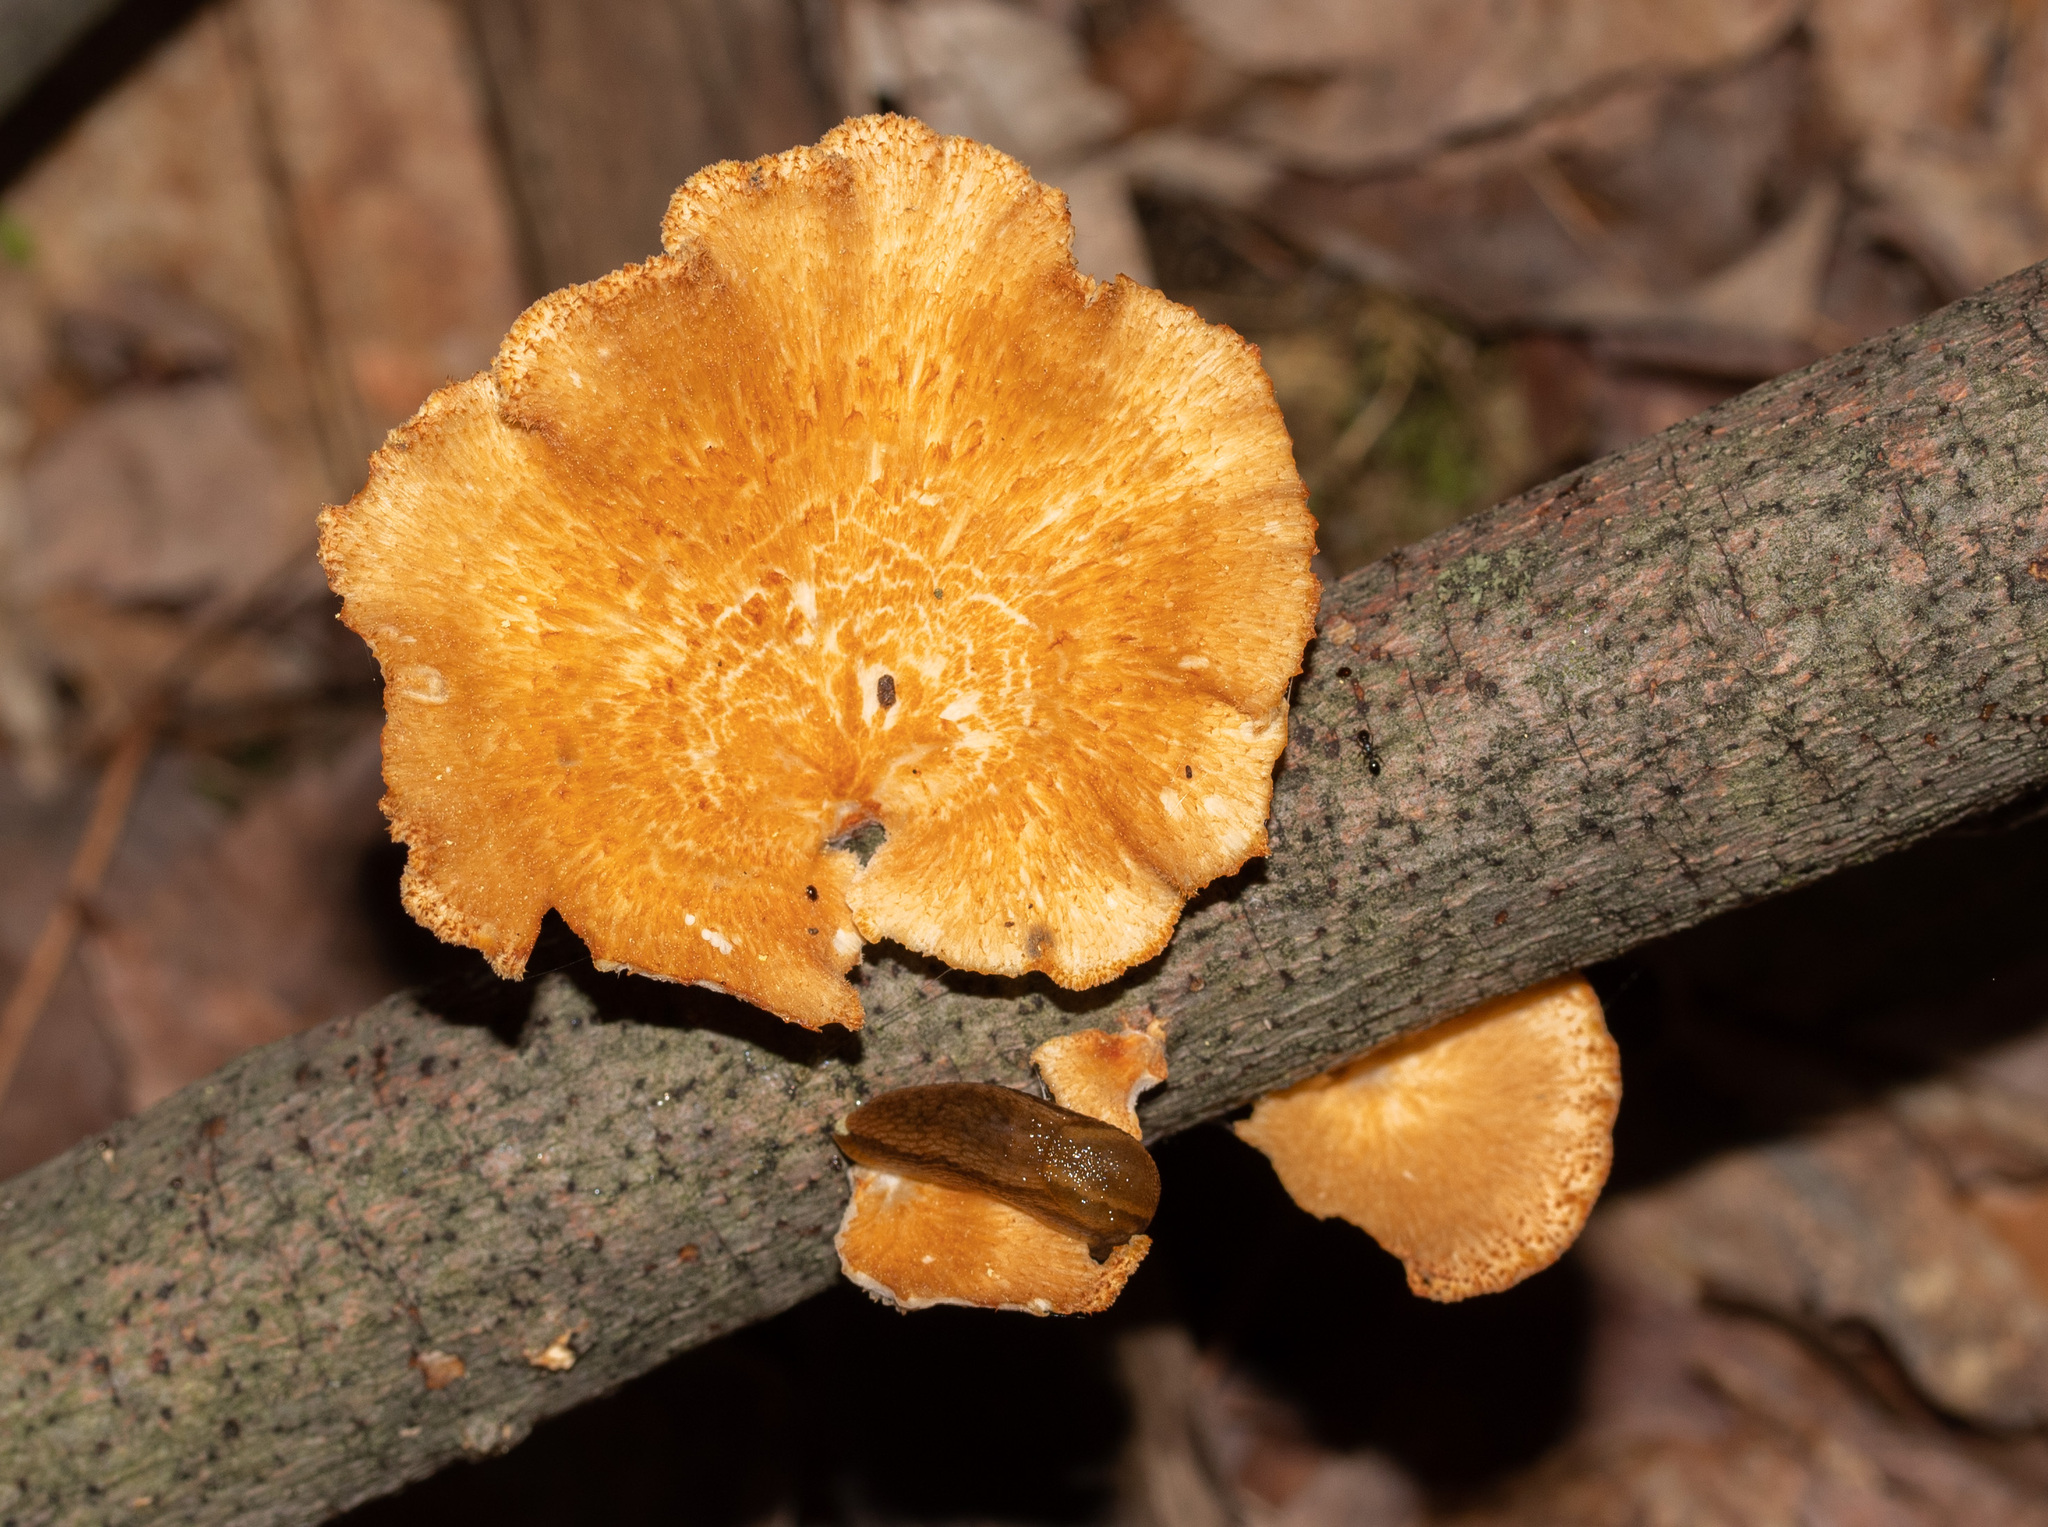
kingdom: Fungi
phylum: Basidiomycota
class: Agaricomycetes
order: Polyporales
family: Polyporaceae
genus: Neofavolus
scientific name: Neofavolus alveolaris
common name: Hexagonal-pored polypore
